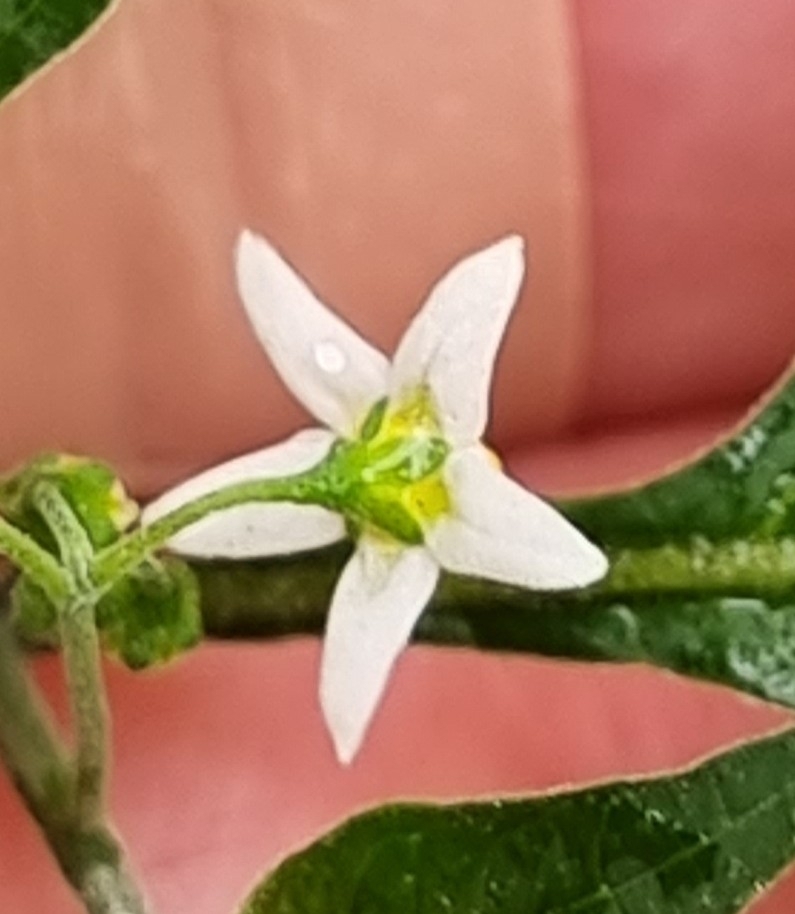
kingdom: Plantae
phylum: Tracheophyta
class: Magnoliopsida
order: Solanales
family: Solanaceae
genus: Solanum
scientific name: Solanum americanum
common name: American black nightshade
